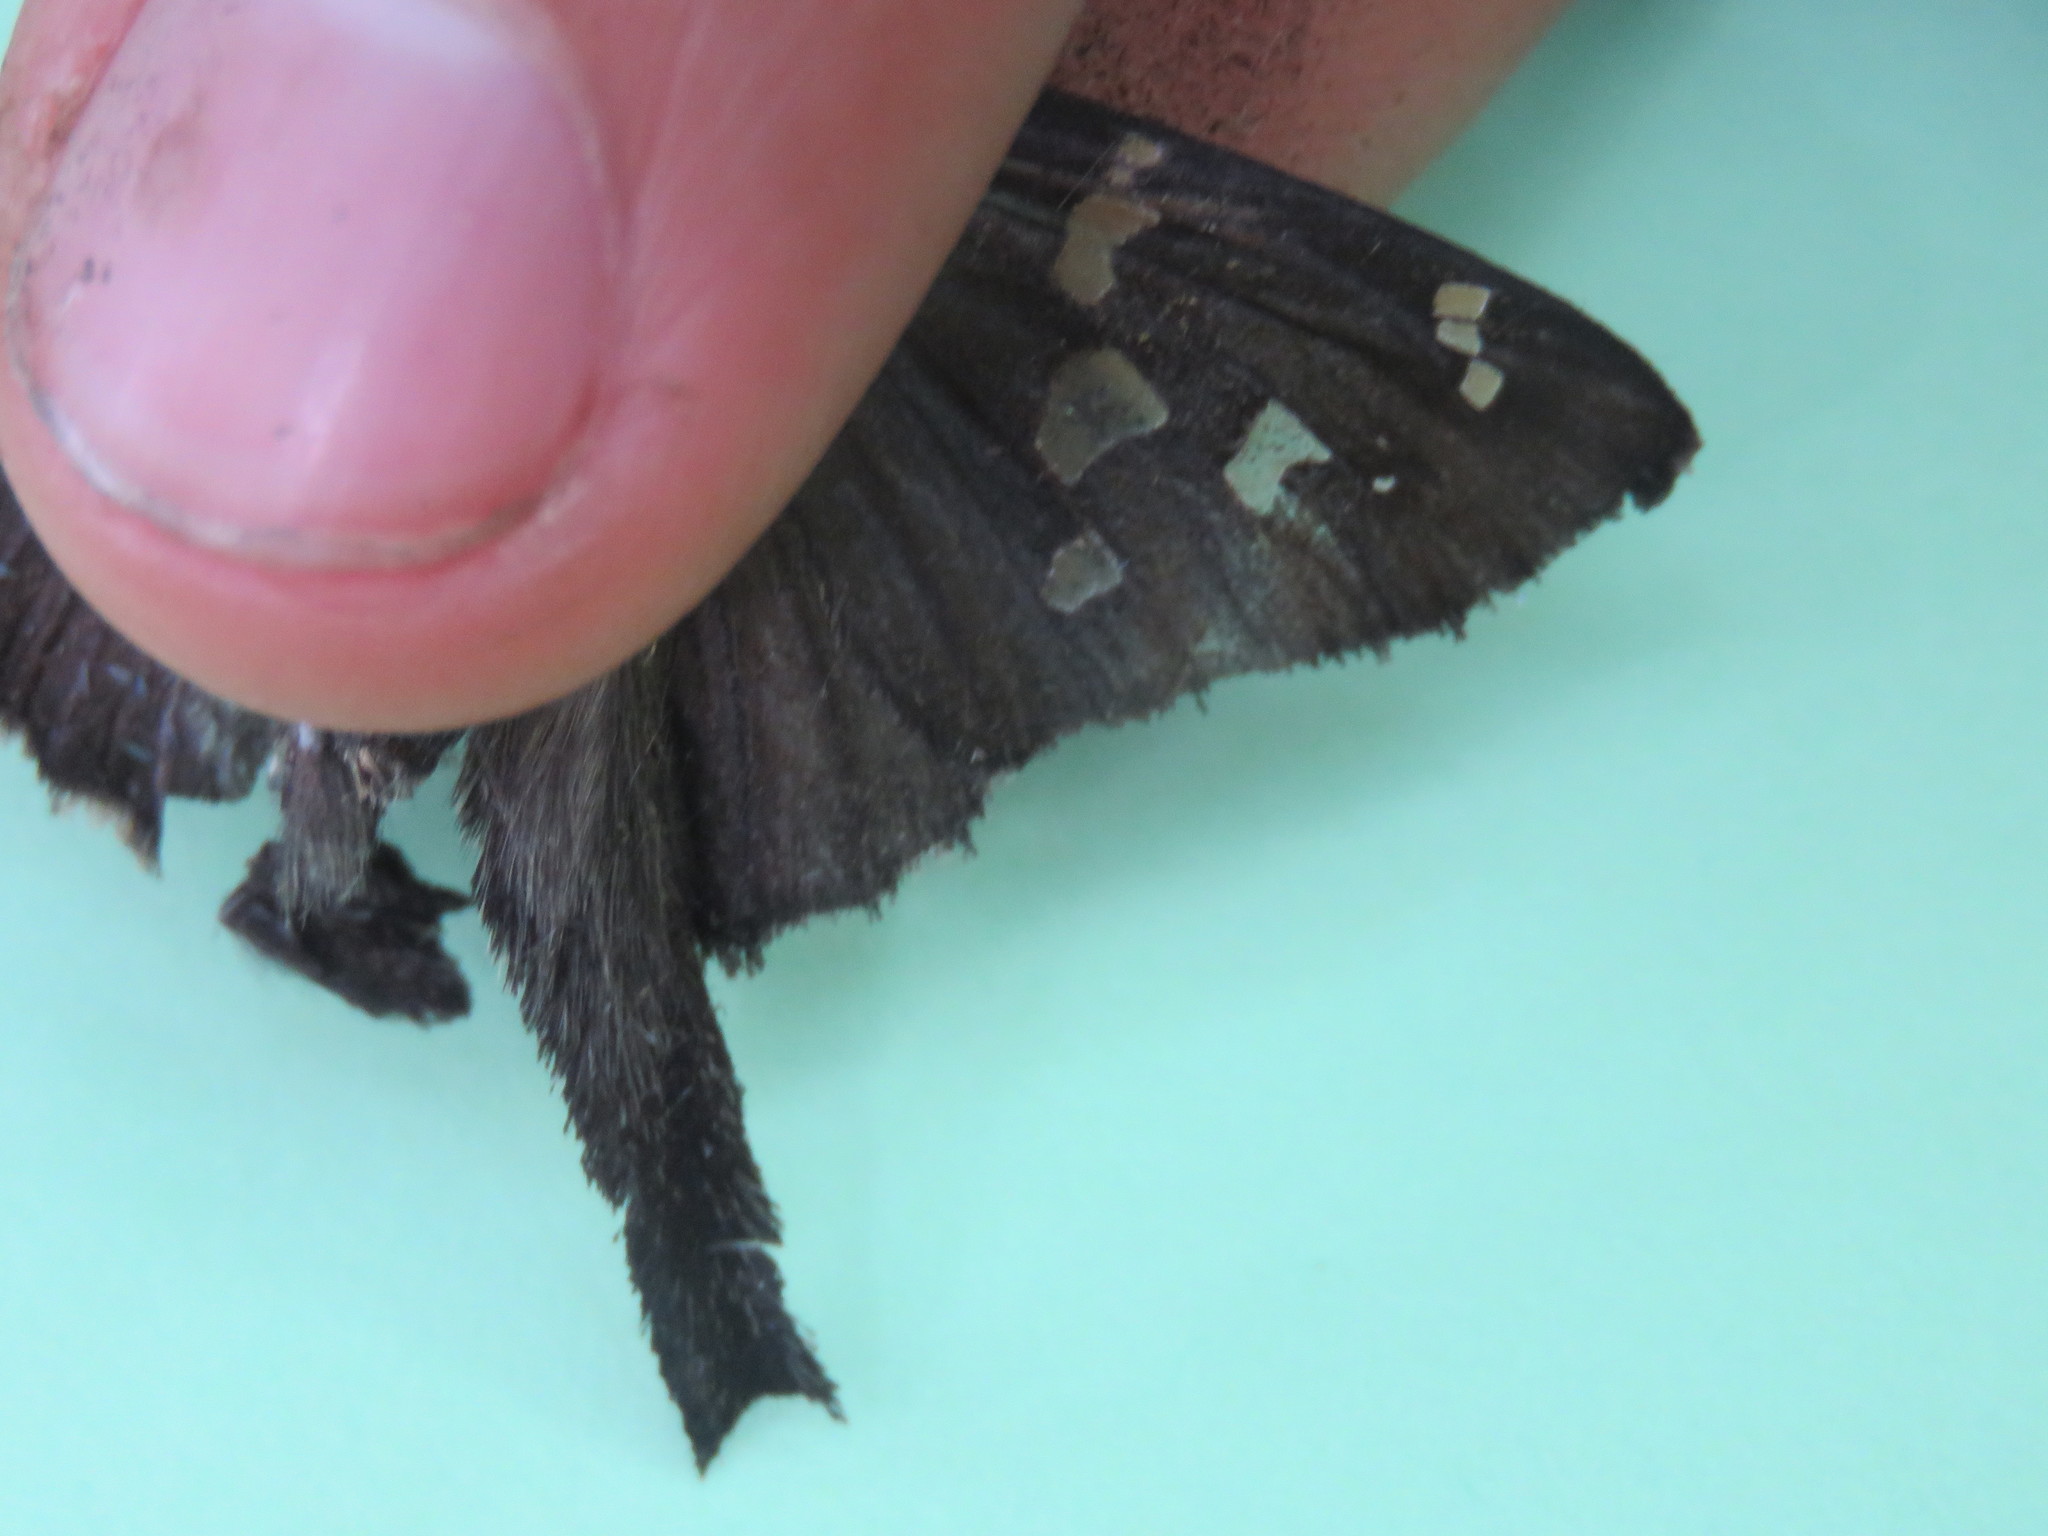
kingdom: Animalia
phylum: Arthropoda
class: Insecta
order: Lepidoptera
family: Hesperiidae
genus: Thorybes
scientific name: Thorybes
